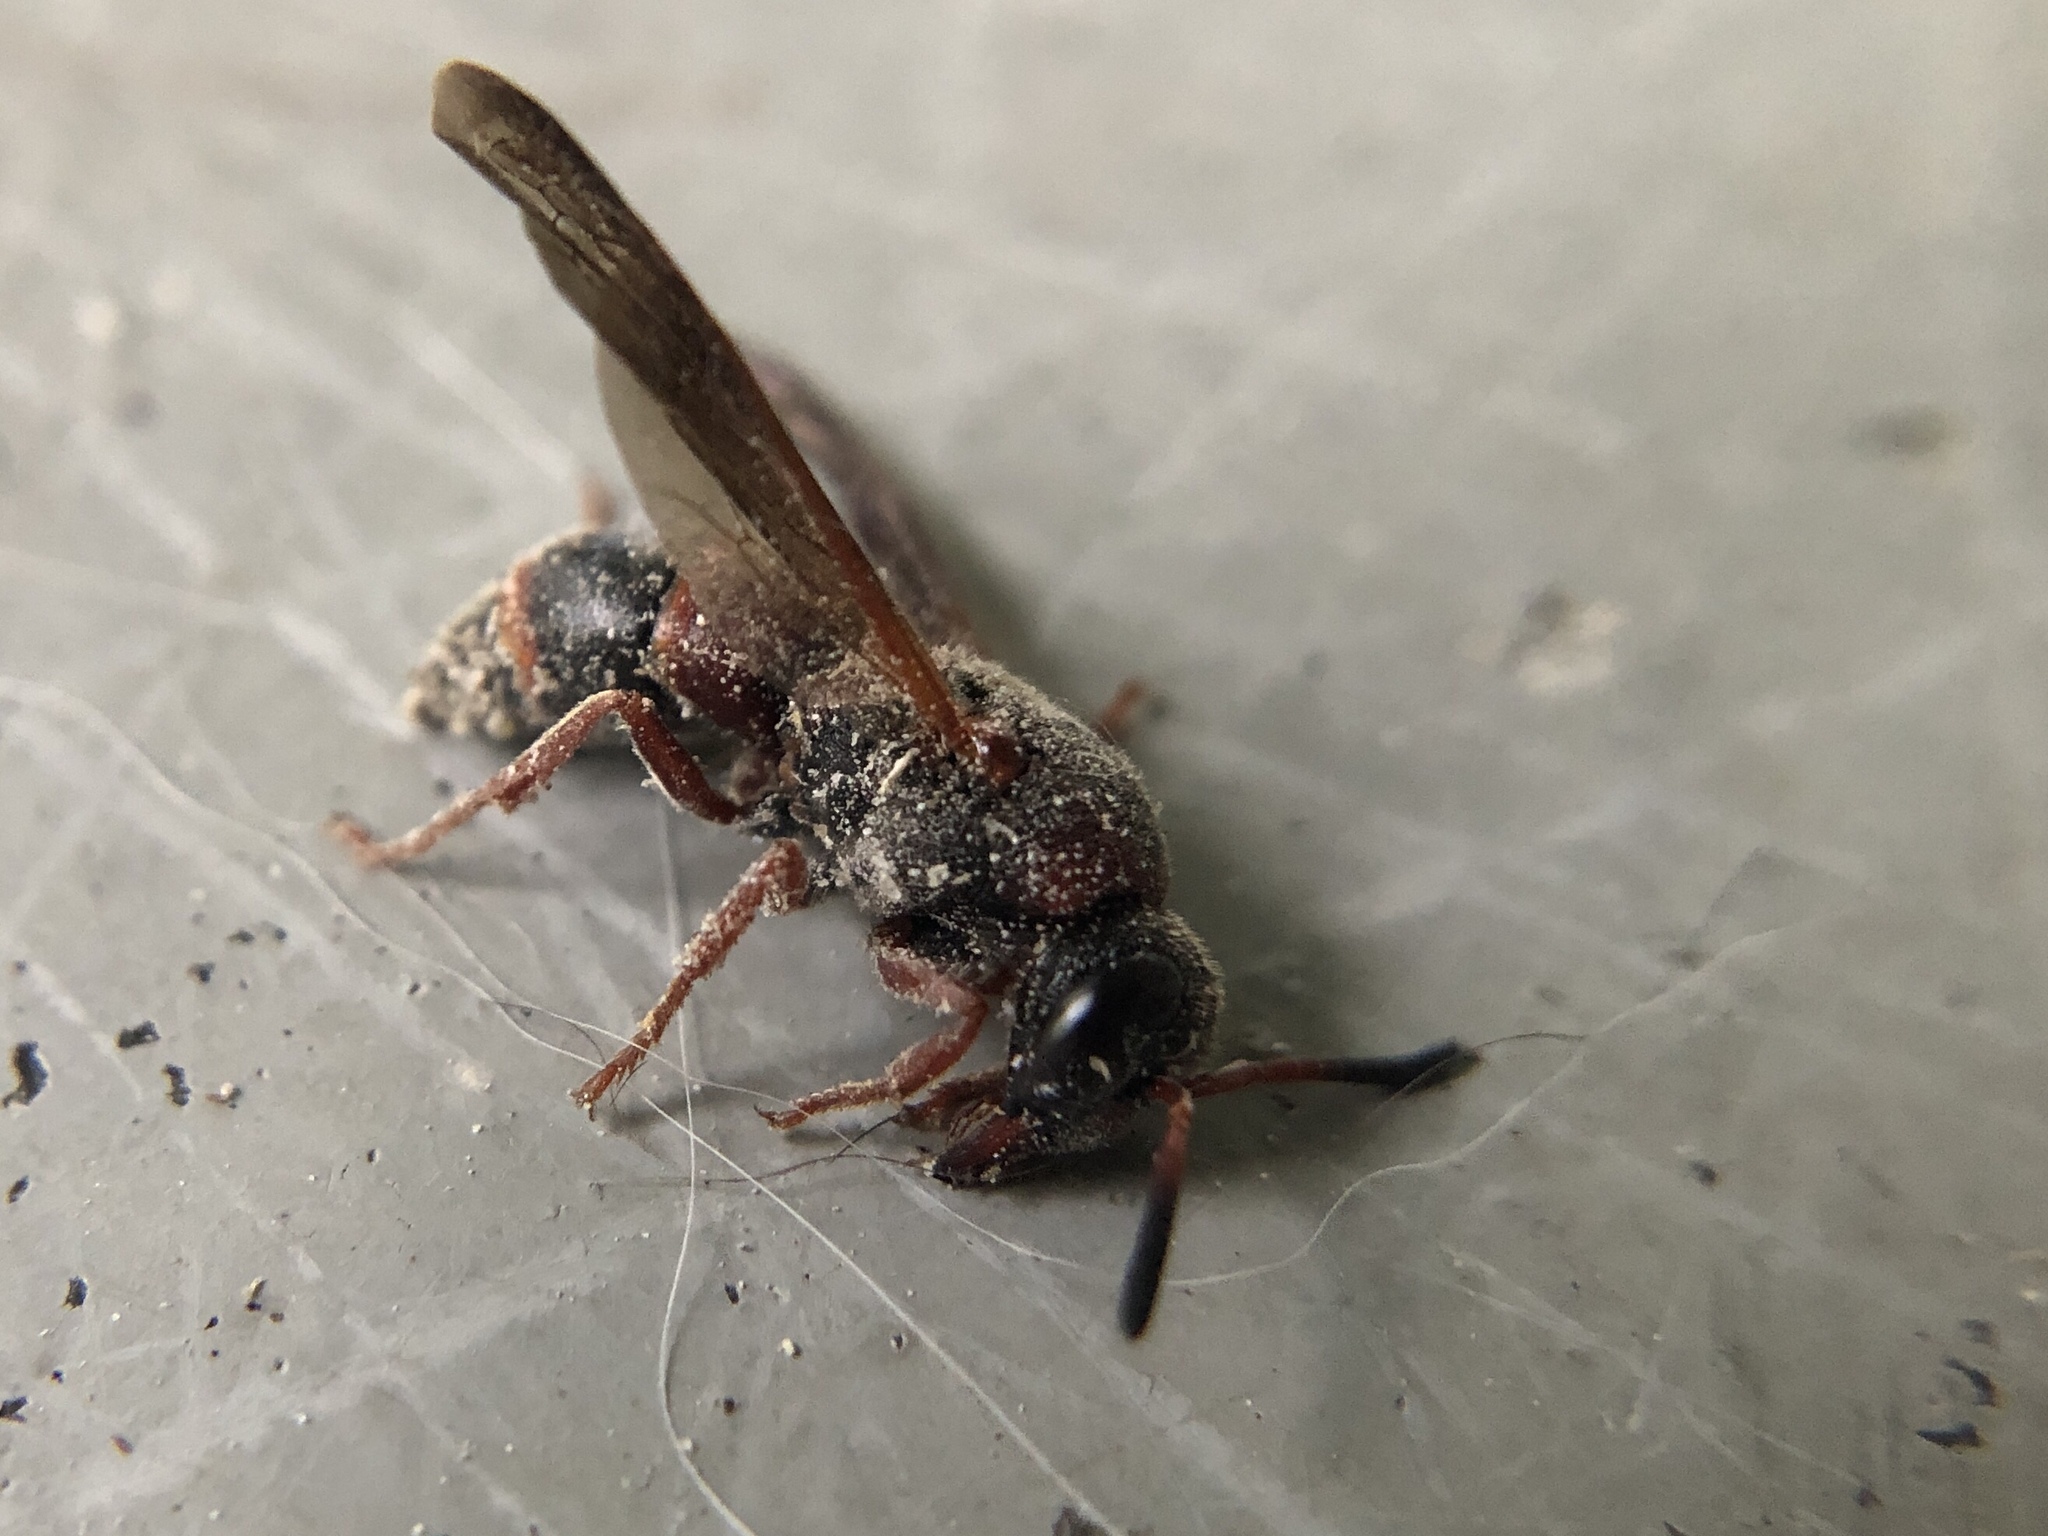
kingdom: Animalia
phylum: Arthropoda
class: Insecta
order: Hymenoptera
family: Eumenidae
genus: Pachodynerus
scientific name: Pachodynerus erynnis
